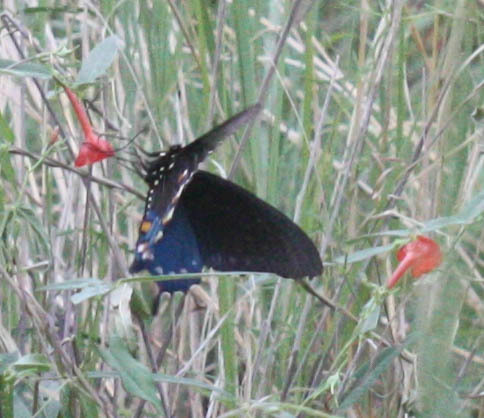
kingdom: Animalia
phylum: Arthropoda
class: Insecta
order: Lepidoptera
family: Papilionidae
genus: Battus
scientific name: Battus philenor
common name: Pipevine swallowtail
